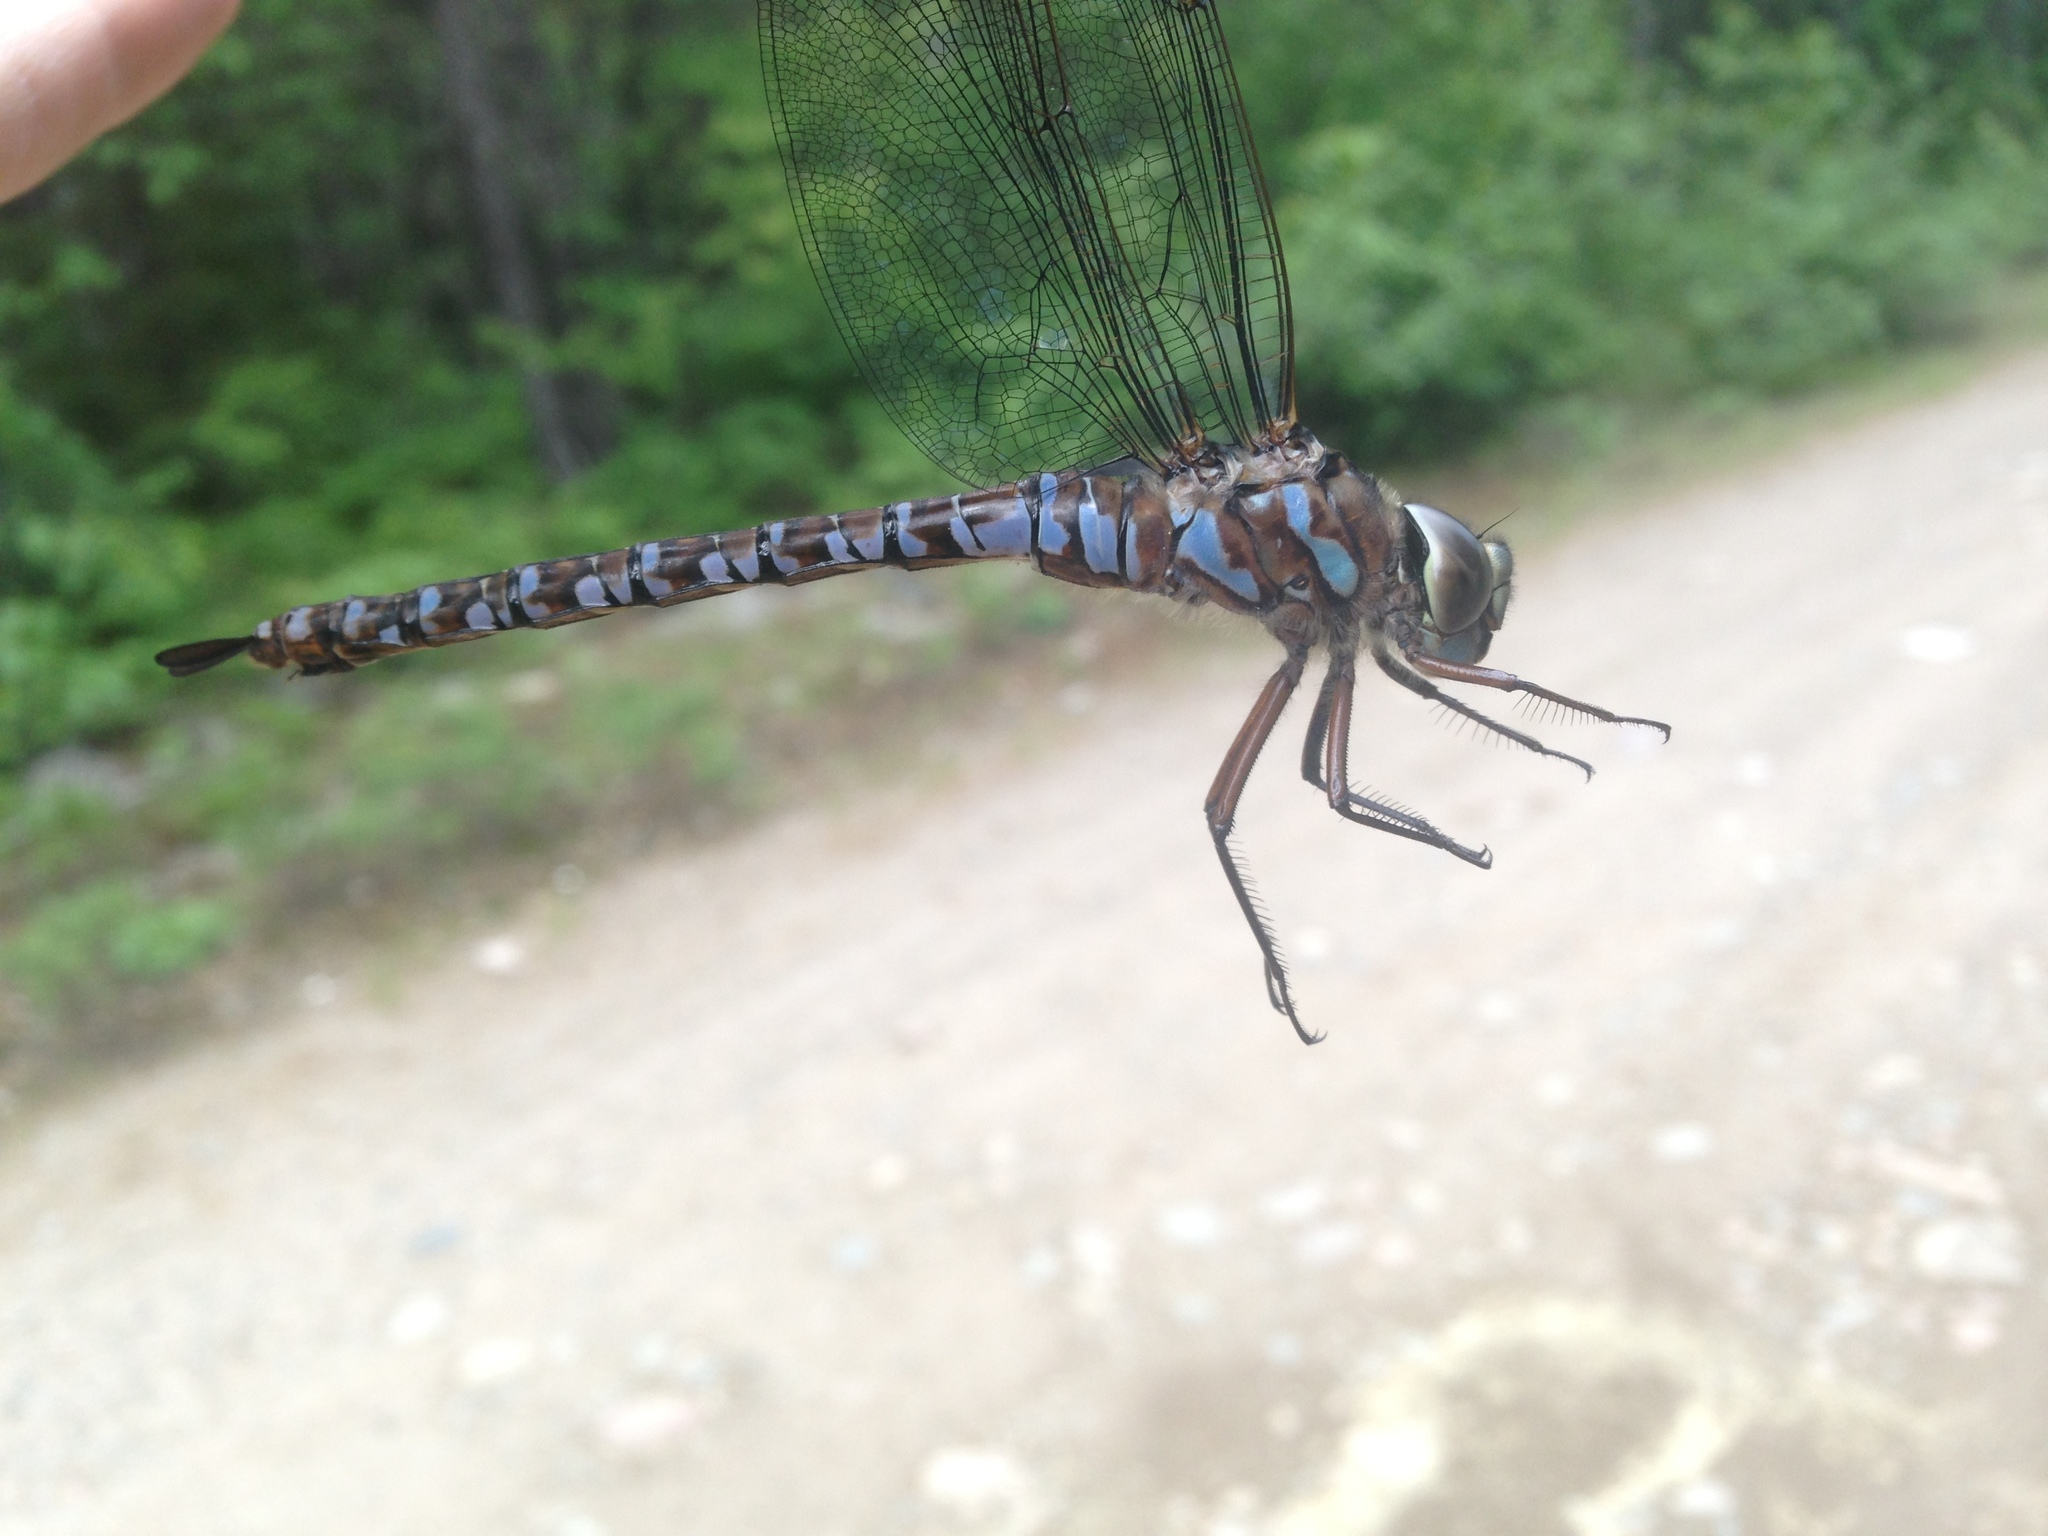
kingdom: Animalia
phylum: Arthropoda
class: Insecta
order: Odonata
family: Aeshnidae
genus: Aeshna
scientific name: Aeshna eremita
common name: Lake darner
